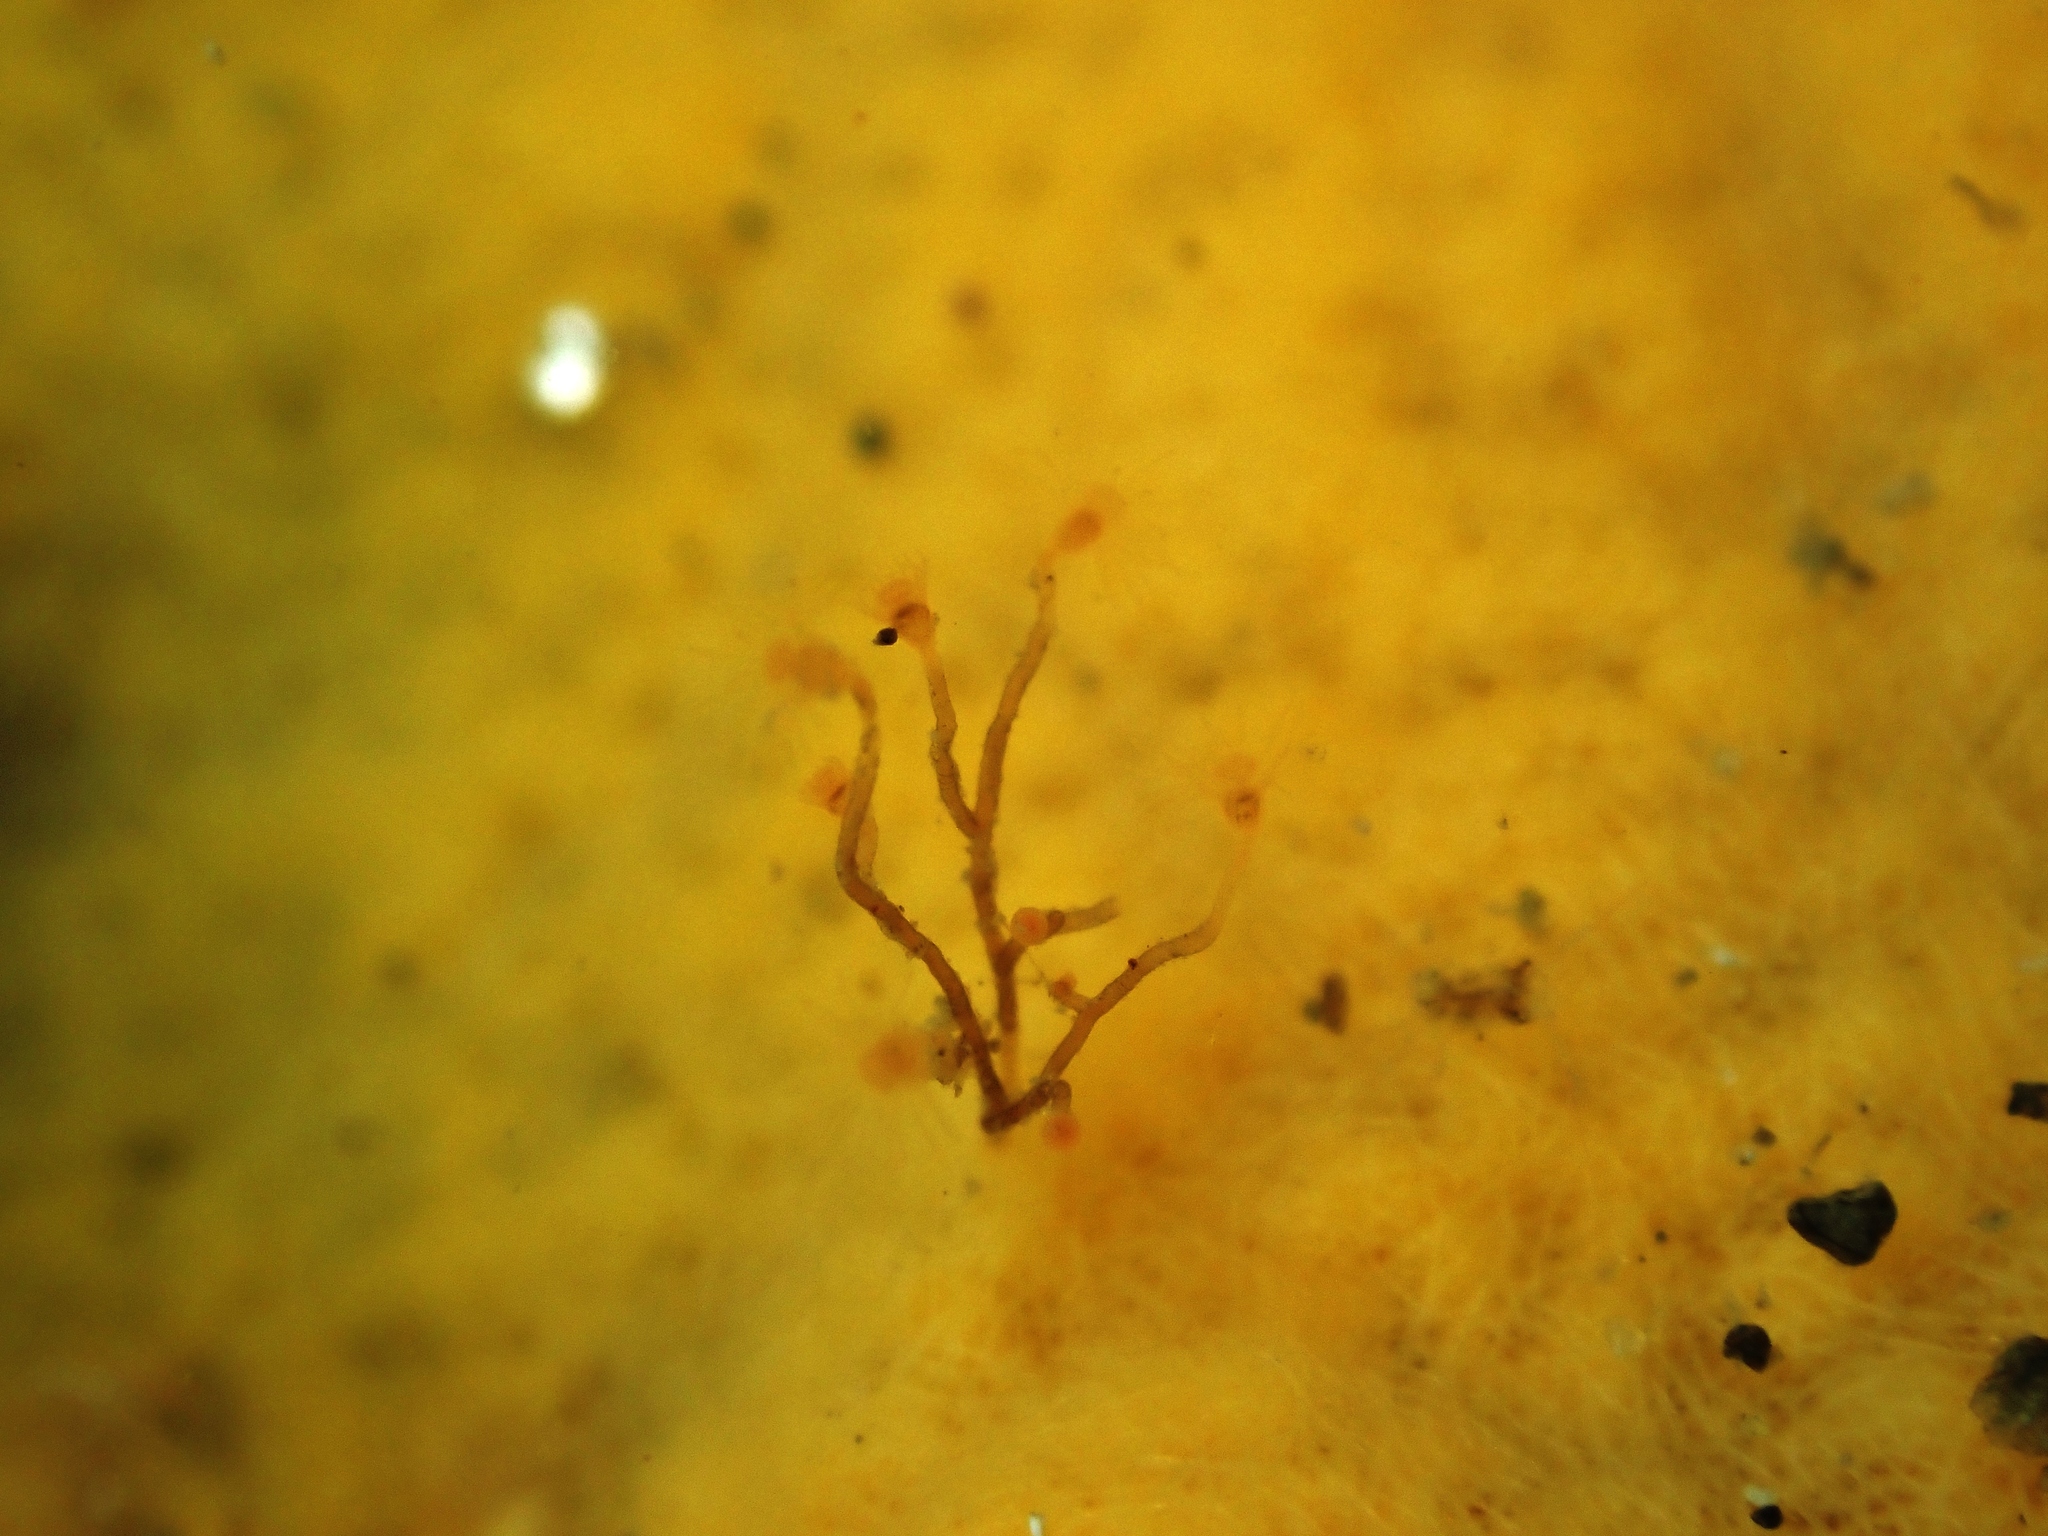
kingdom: Animalia
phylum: Mollusca
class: Gastropoda
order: Nudibranchia
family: Flabellinidae
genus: Coryphellina
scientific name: Coryphellina albomarginata
